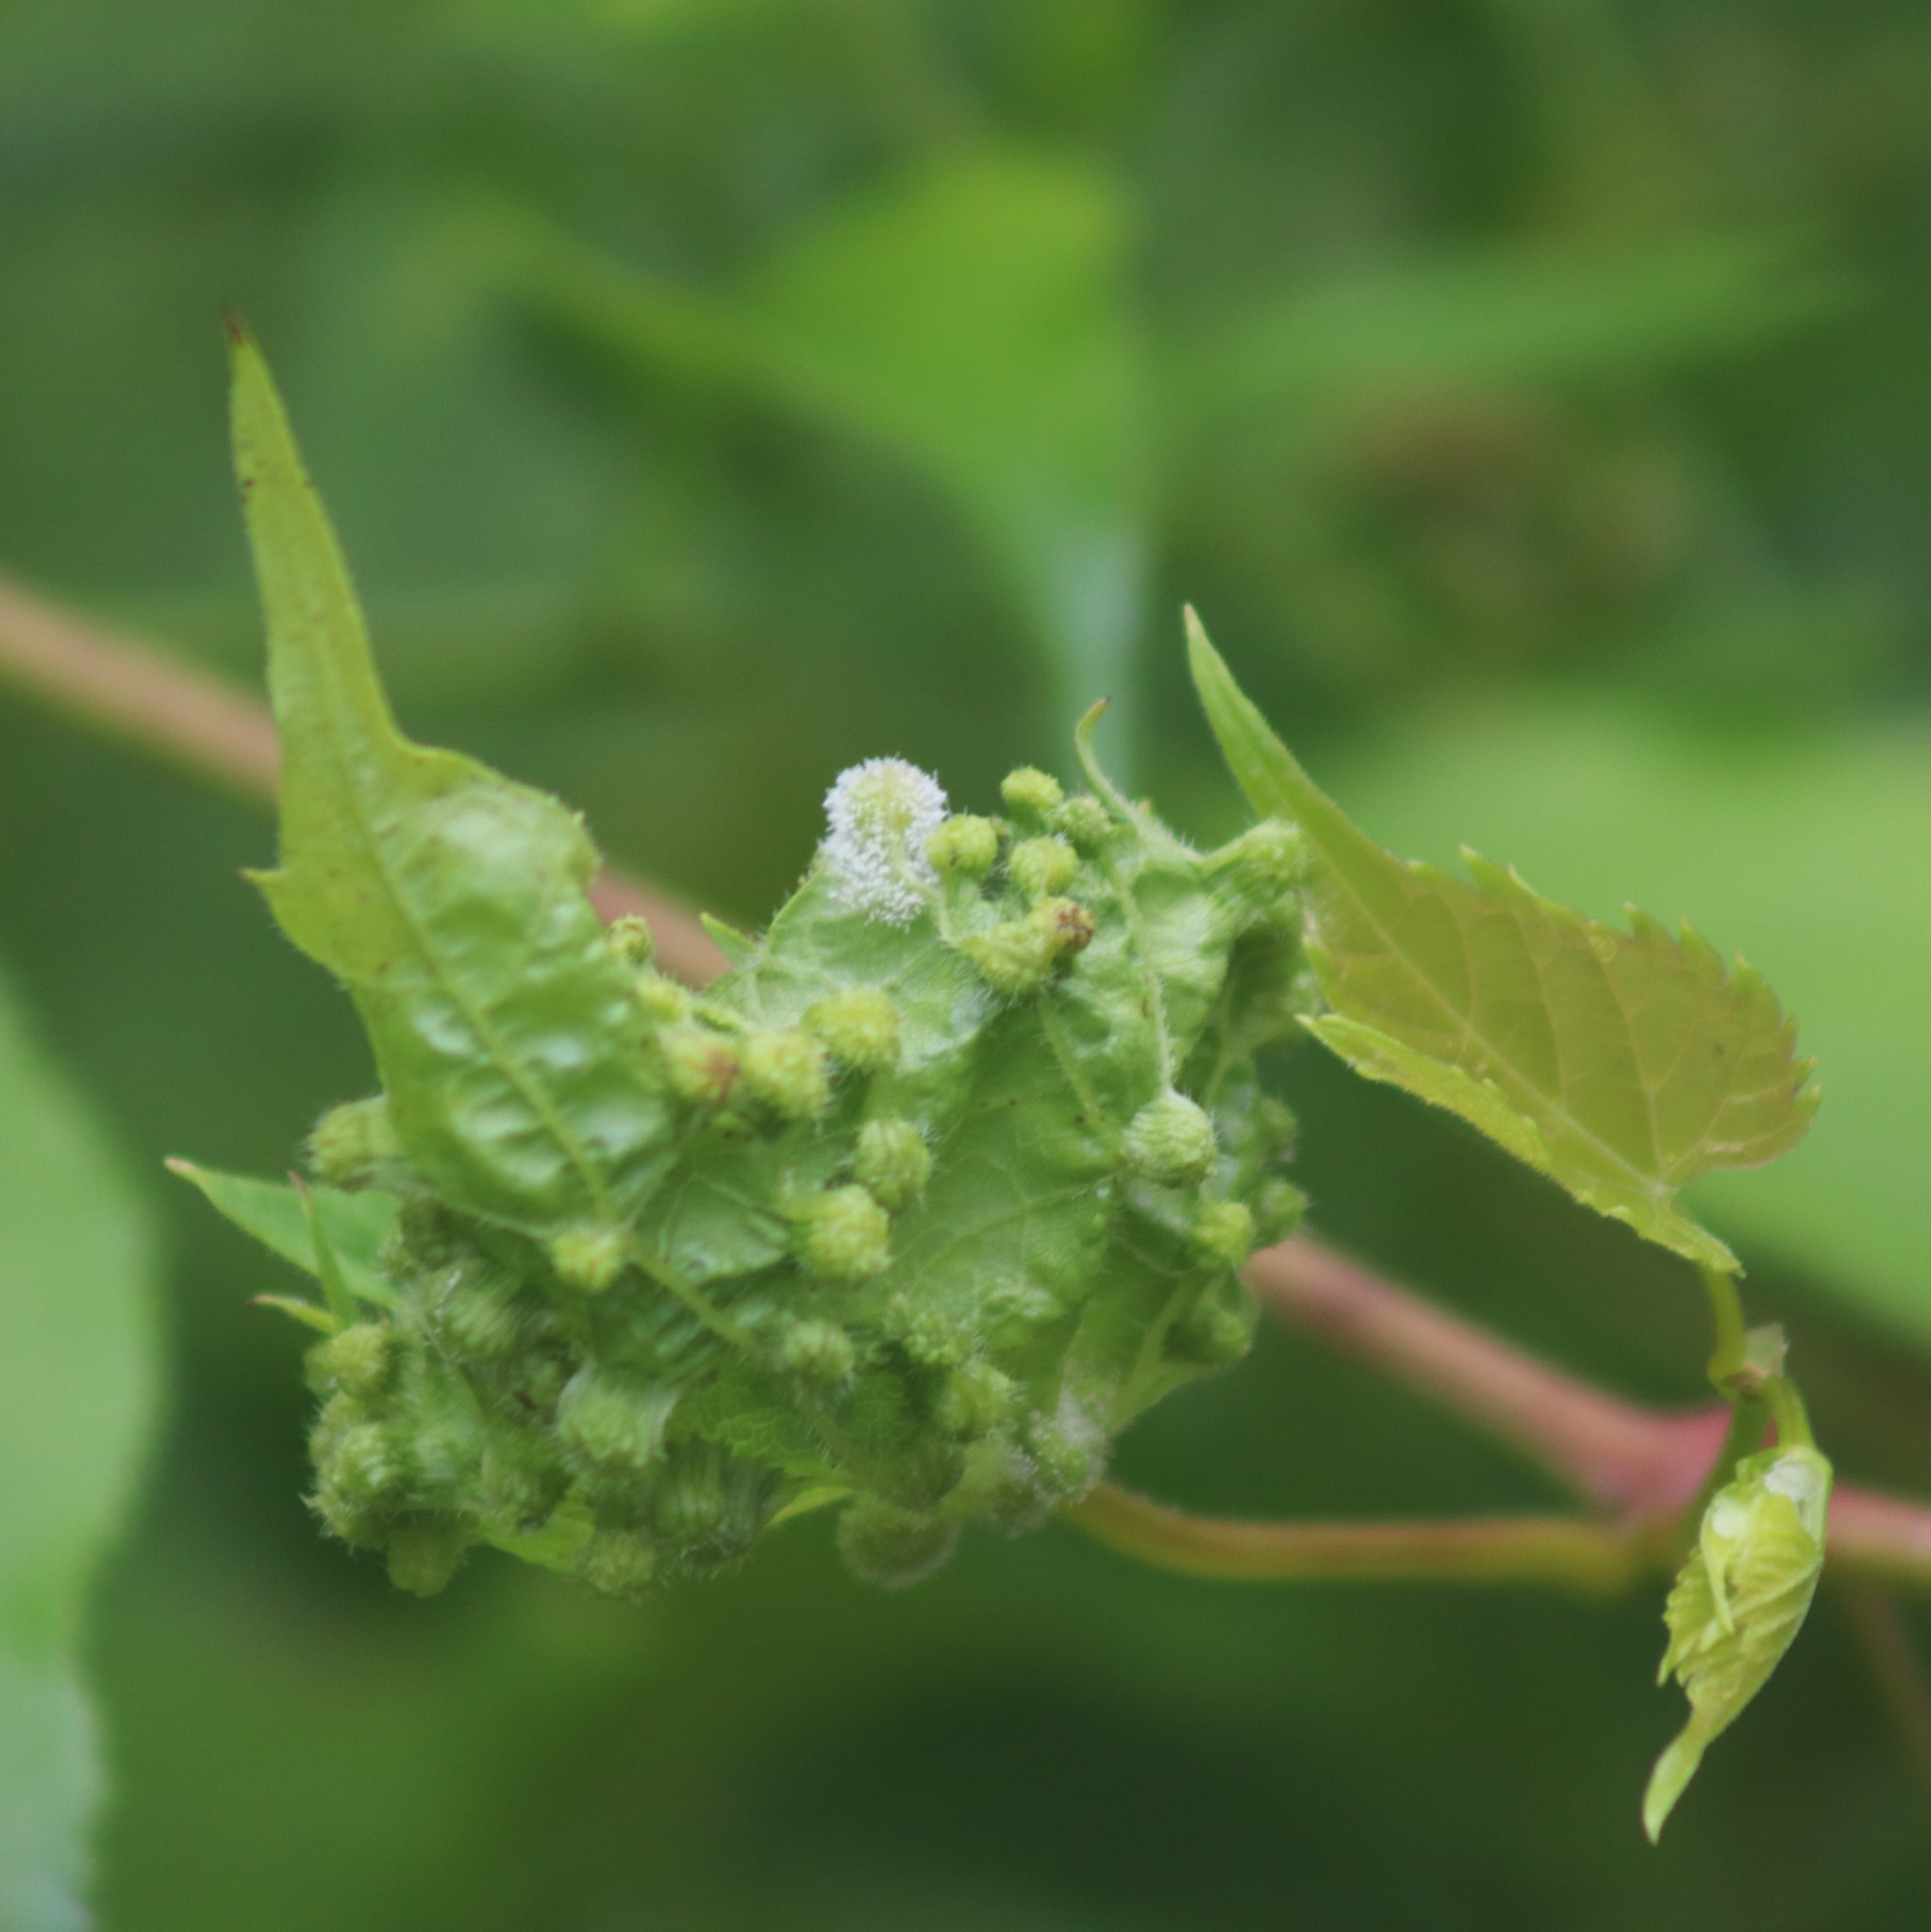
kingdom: Animalia
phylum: Arthropoda
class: Insecta
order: Hemiptera
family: Phylloxeridae
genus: Daktulosphaira
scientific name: Daktulosphaira vitifoliae
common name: Grape phylloxera
